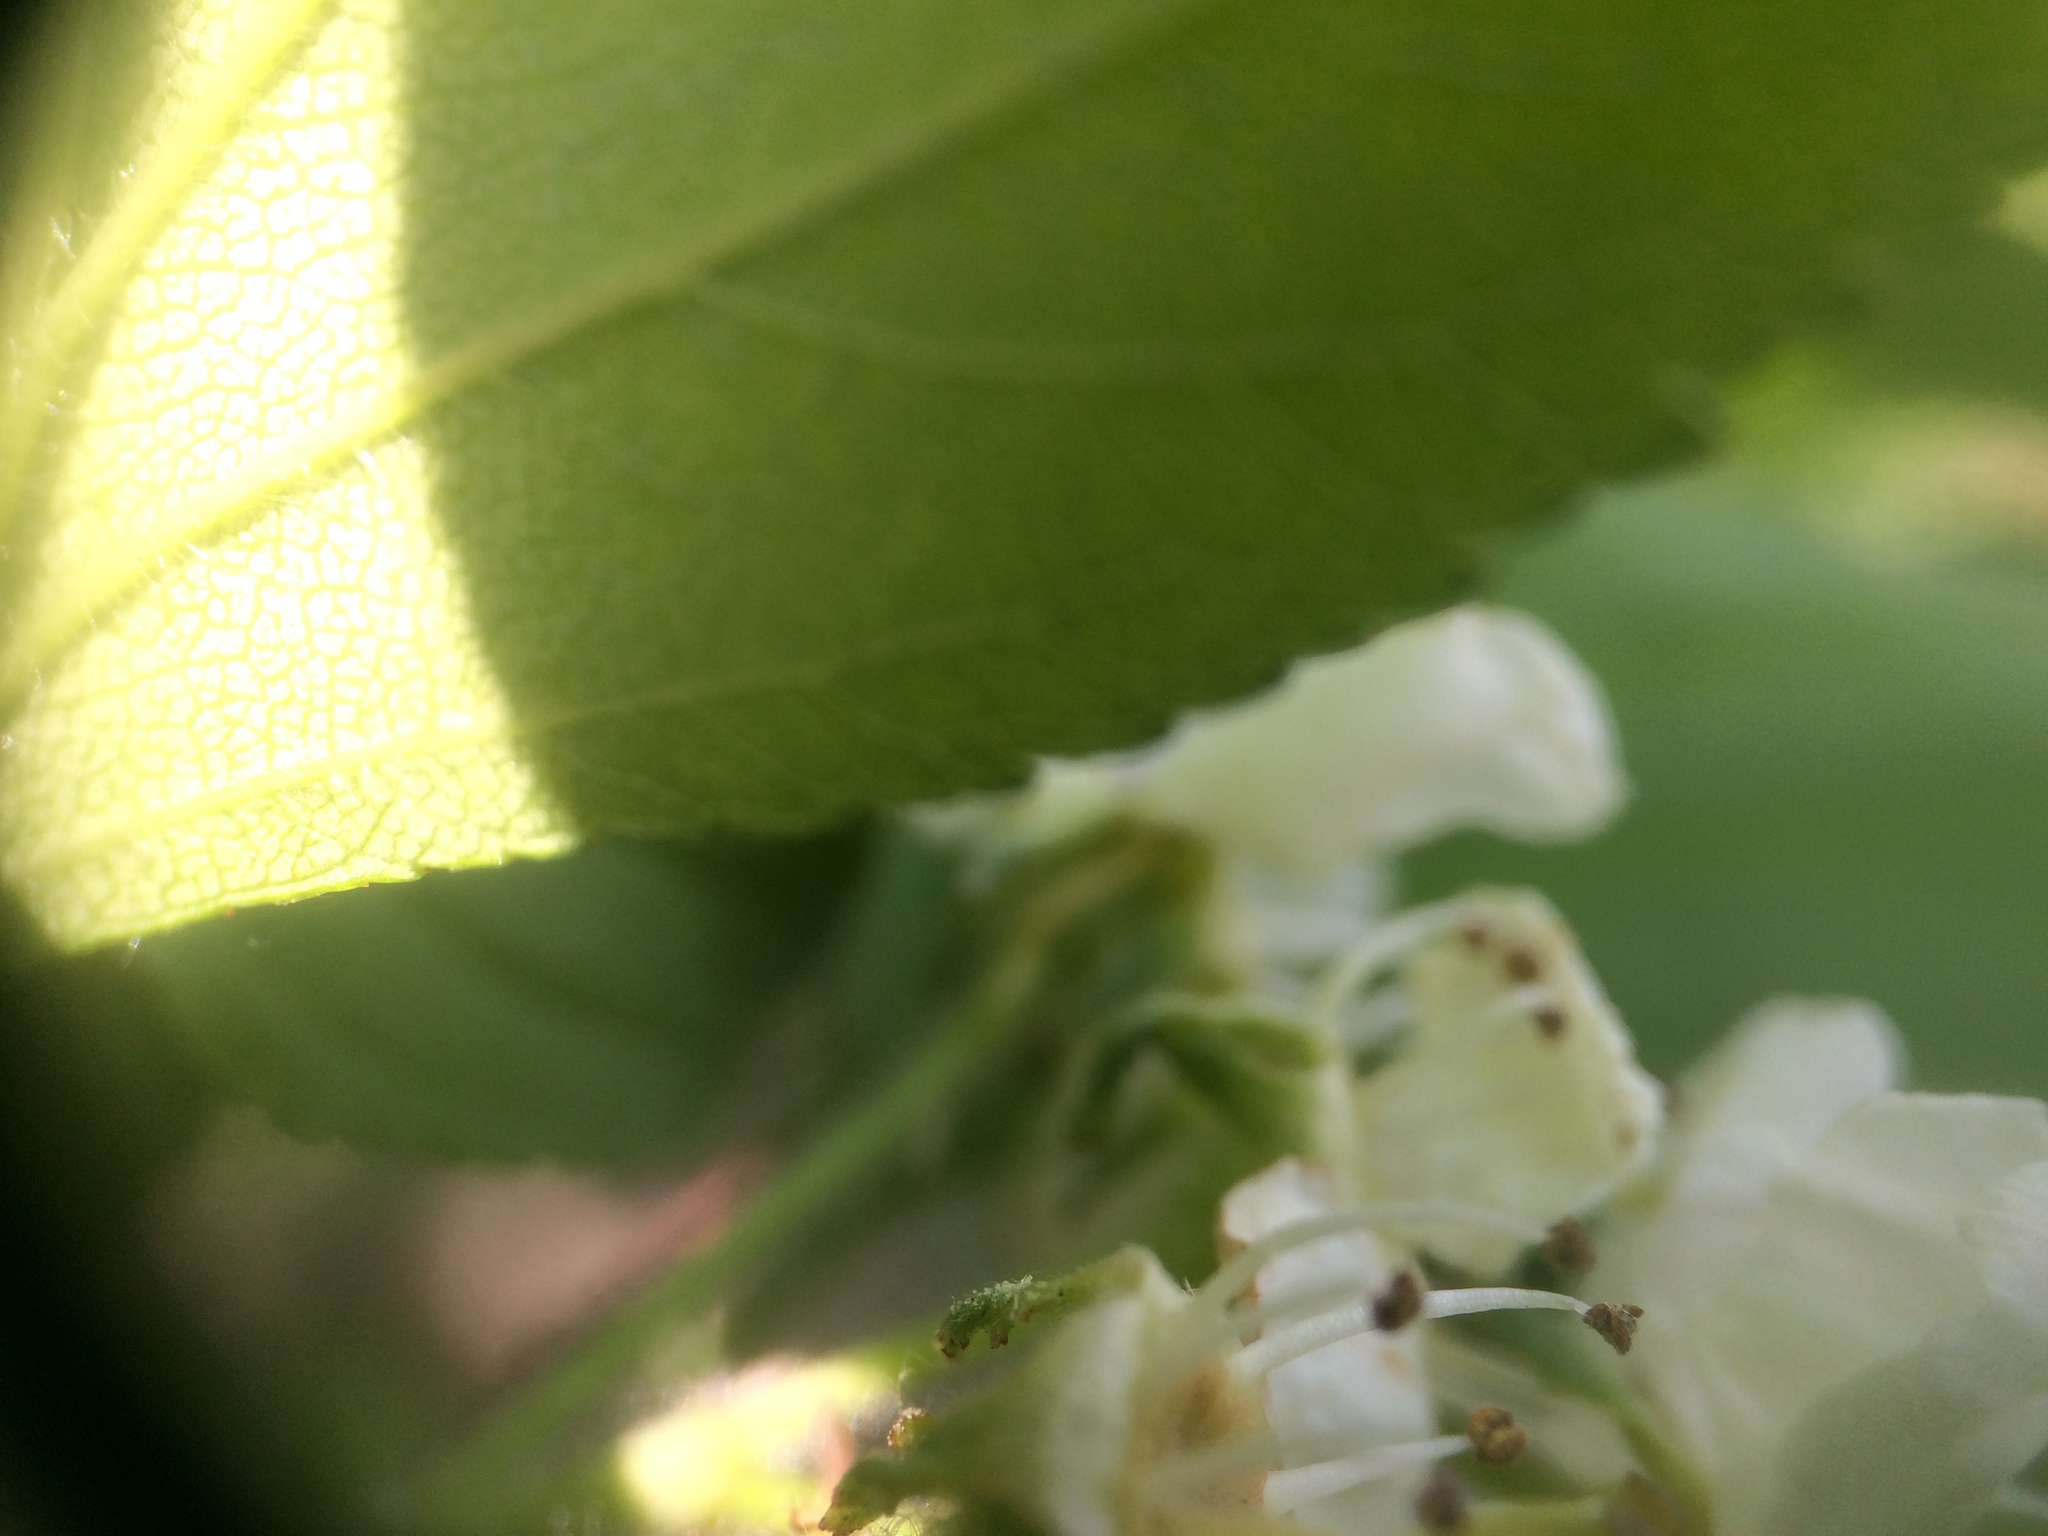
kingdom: Plantae
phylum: Tracheophyta
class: Magnoliopsida
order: Rosales
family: Rosaceae
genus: Crataegus
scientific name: Crataegus chrysocarpa
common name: Fire-berry hawthorn
